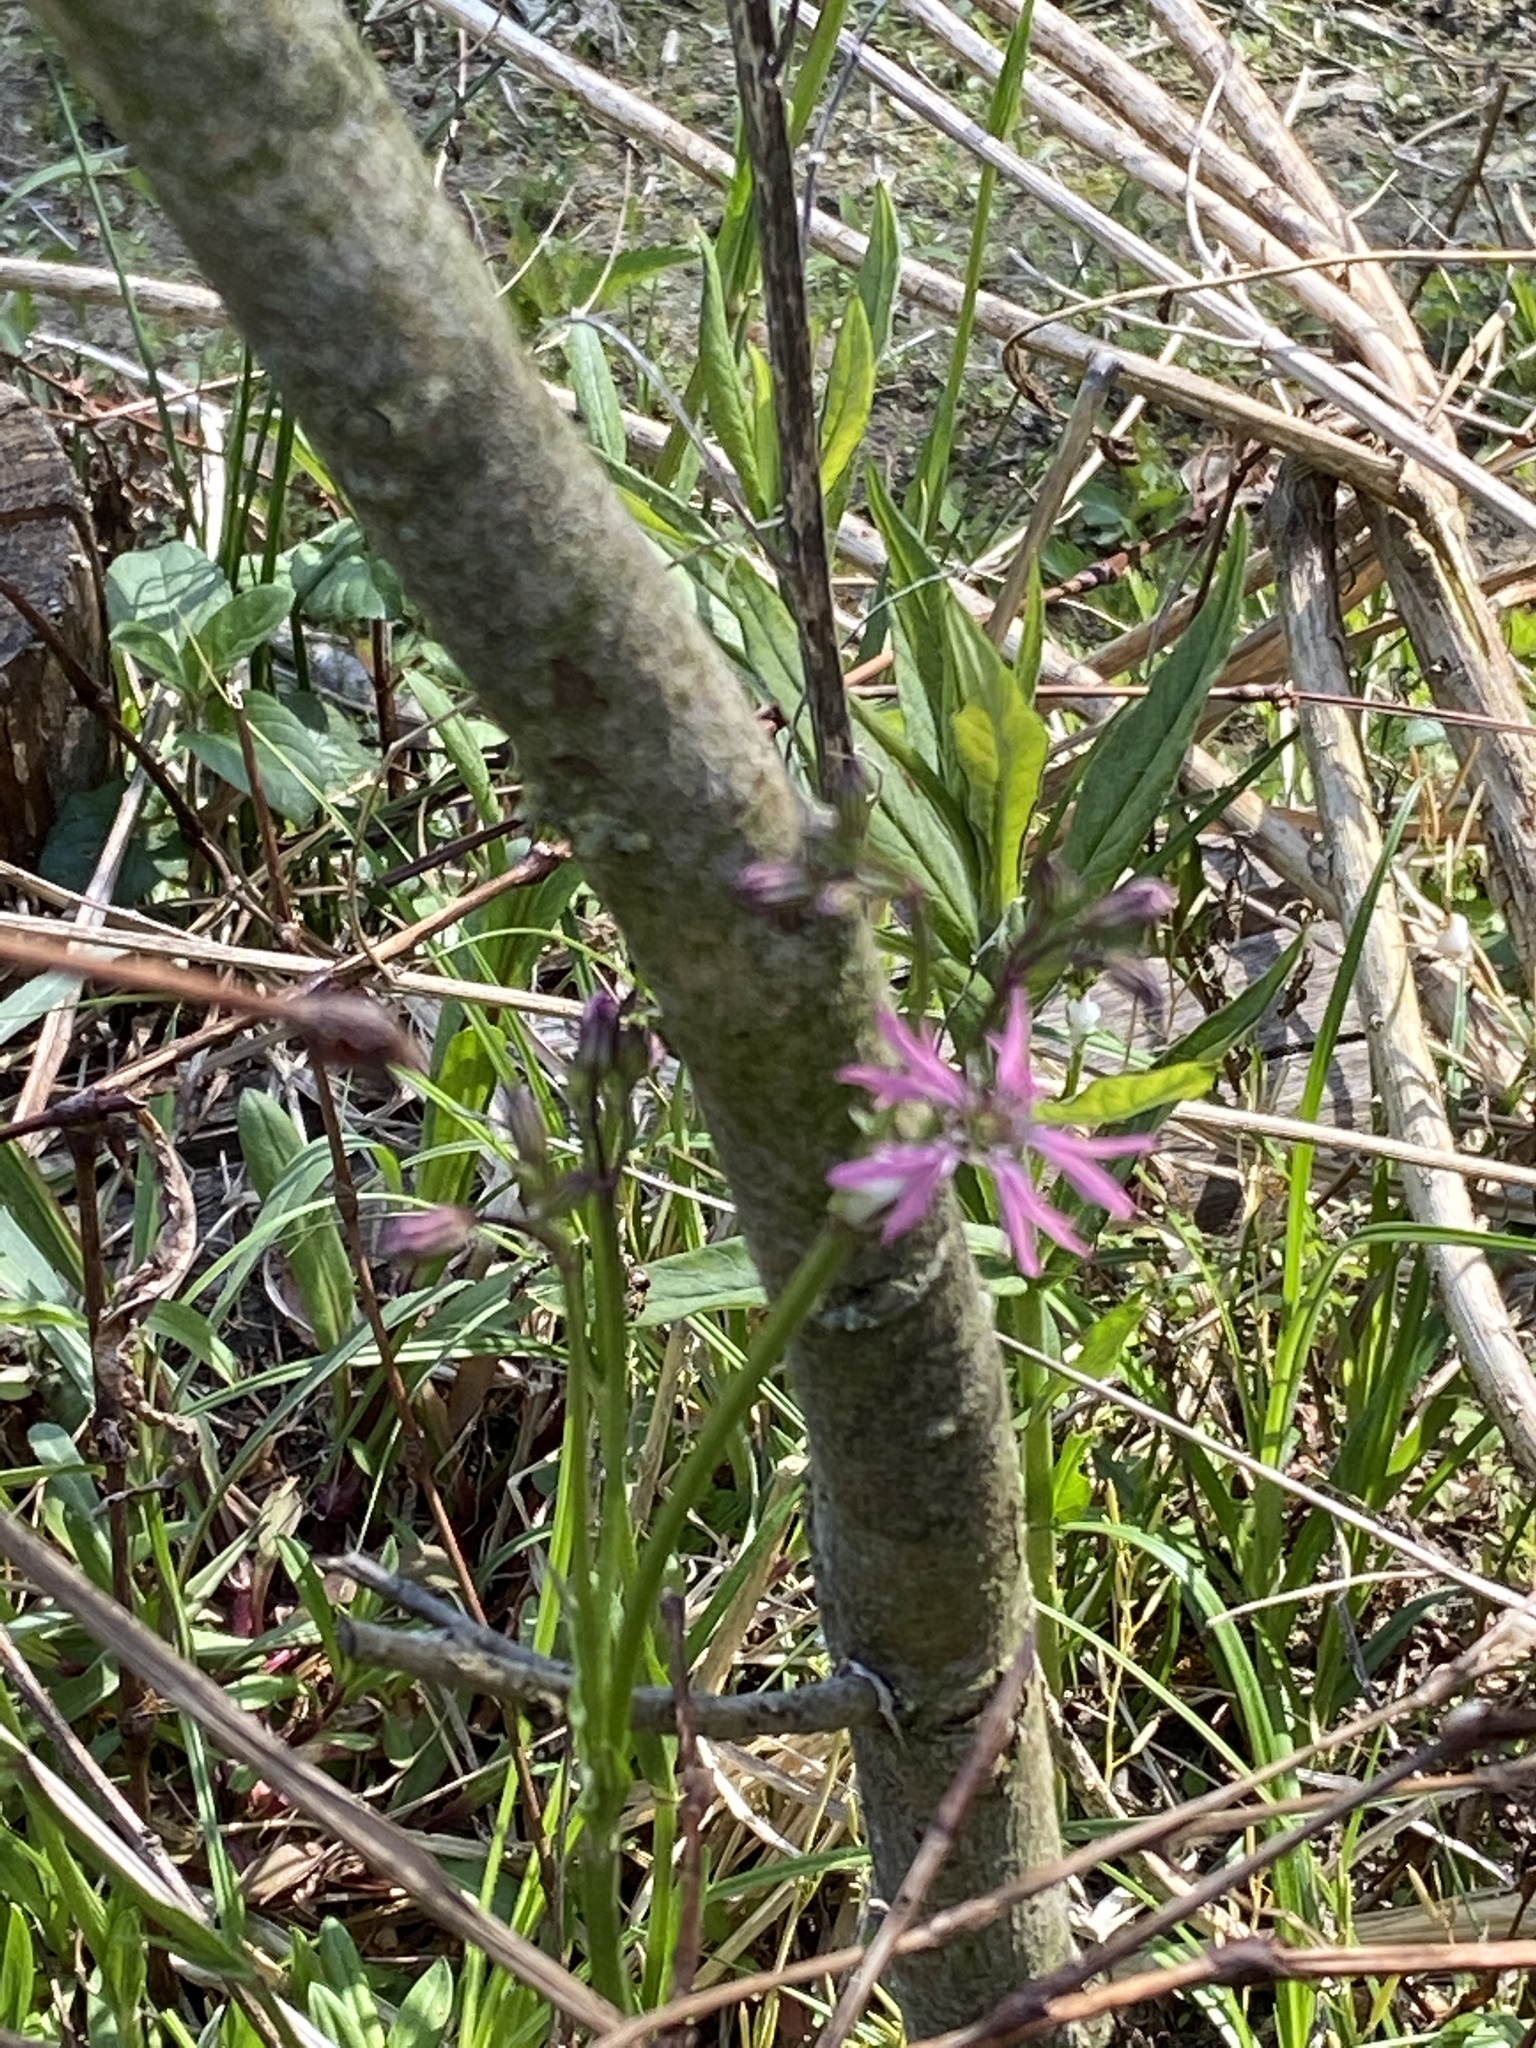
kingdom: Plantae
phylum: Tracheophyta
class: Magnoliopsida
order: Caryophyllales
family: Caryophyllaceae
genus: Silene
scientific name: Silene flos-cuculi
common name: Ragged-robin
